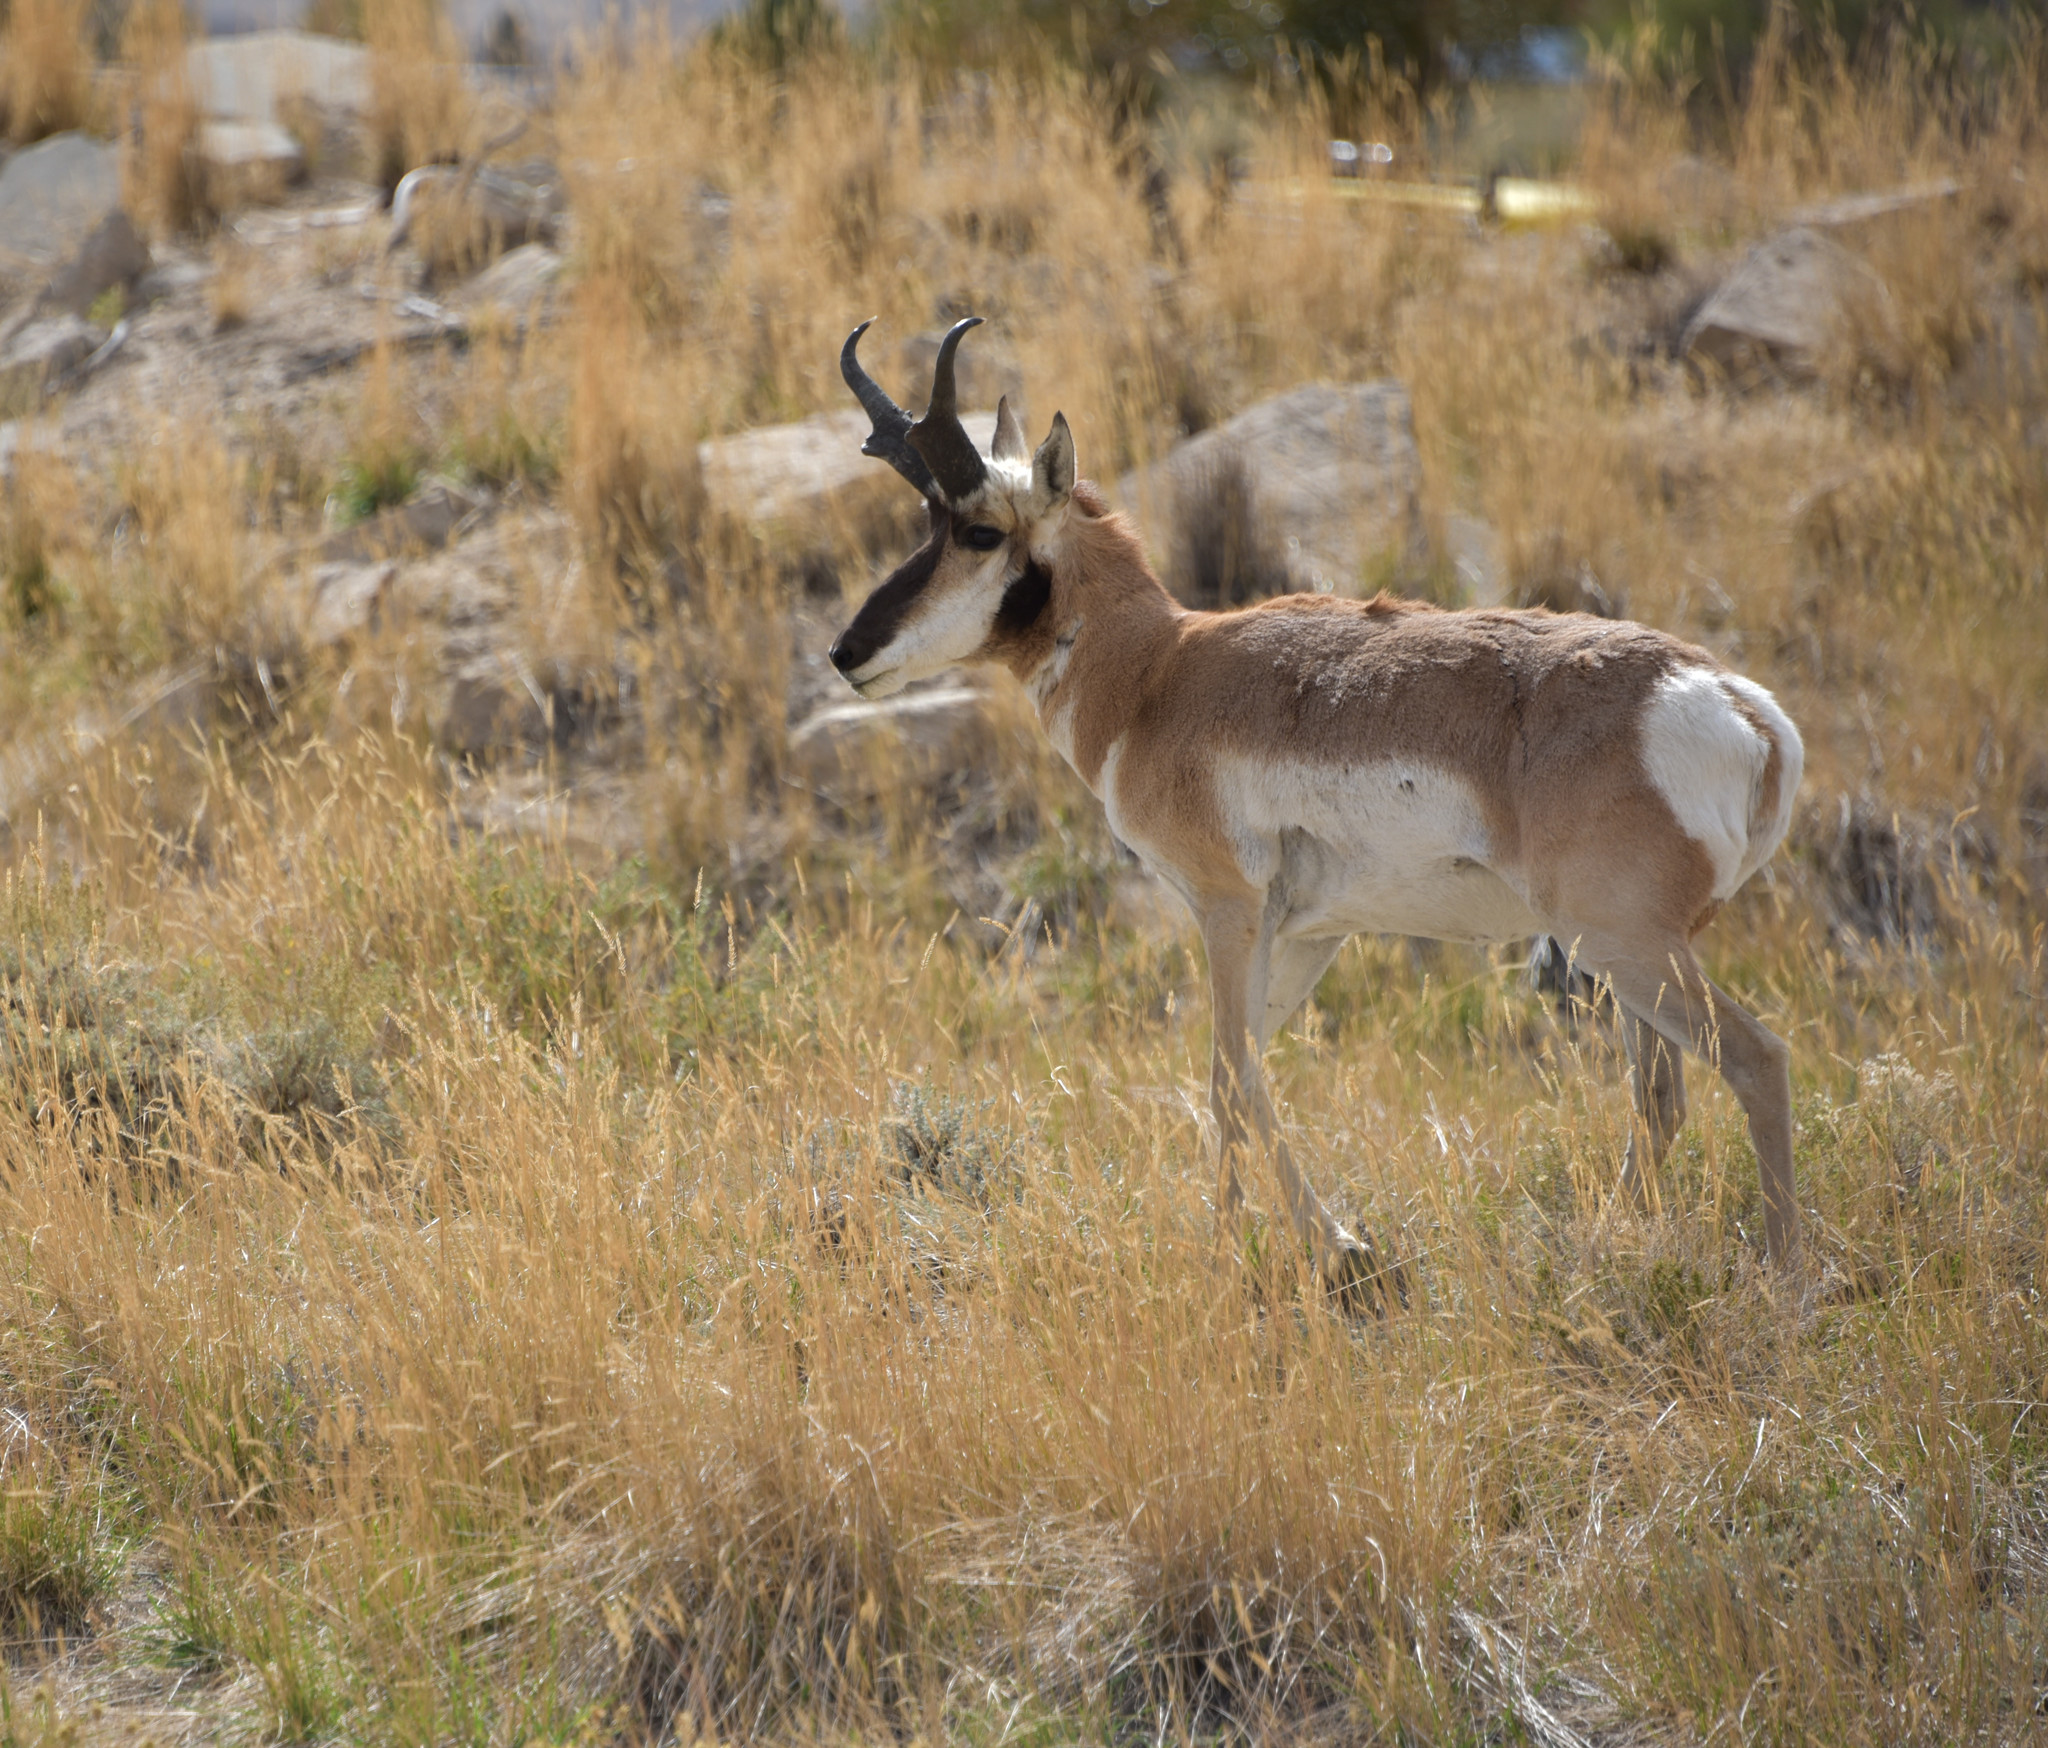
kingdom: Animalia
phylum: Chordata
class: Mammalia
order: Artiodactyla
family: Antilocapridae
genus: Antilocapra
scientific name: Antilocapra americana
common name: Pronghorn
